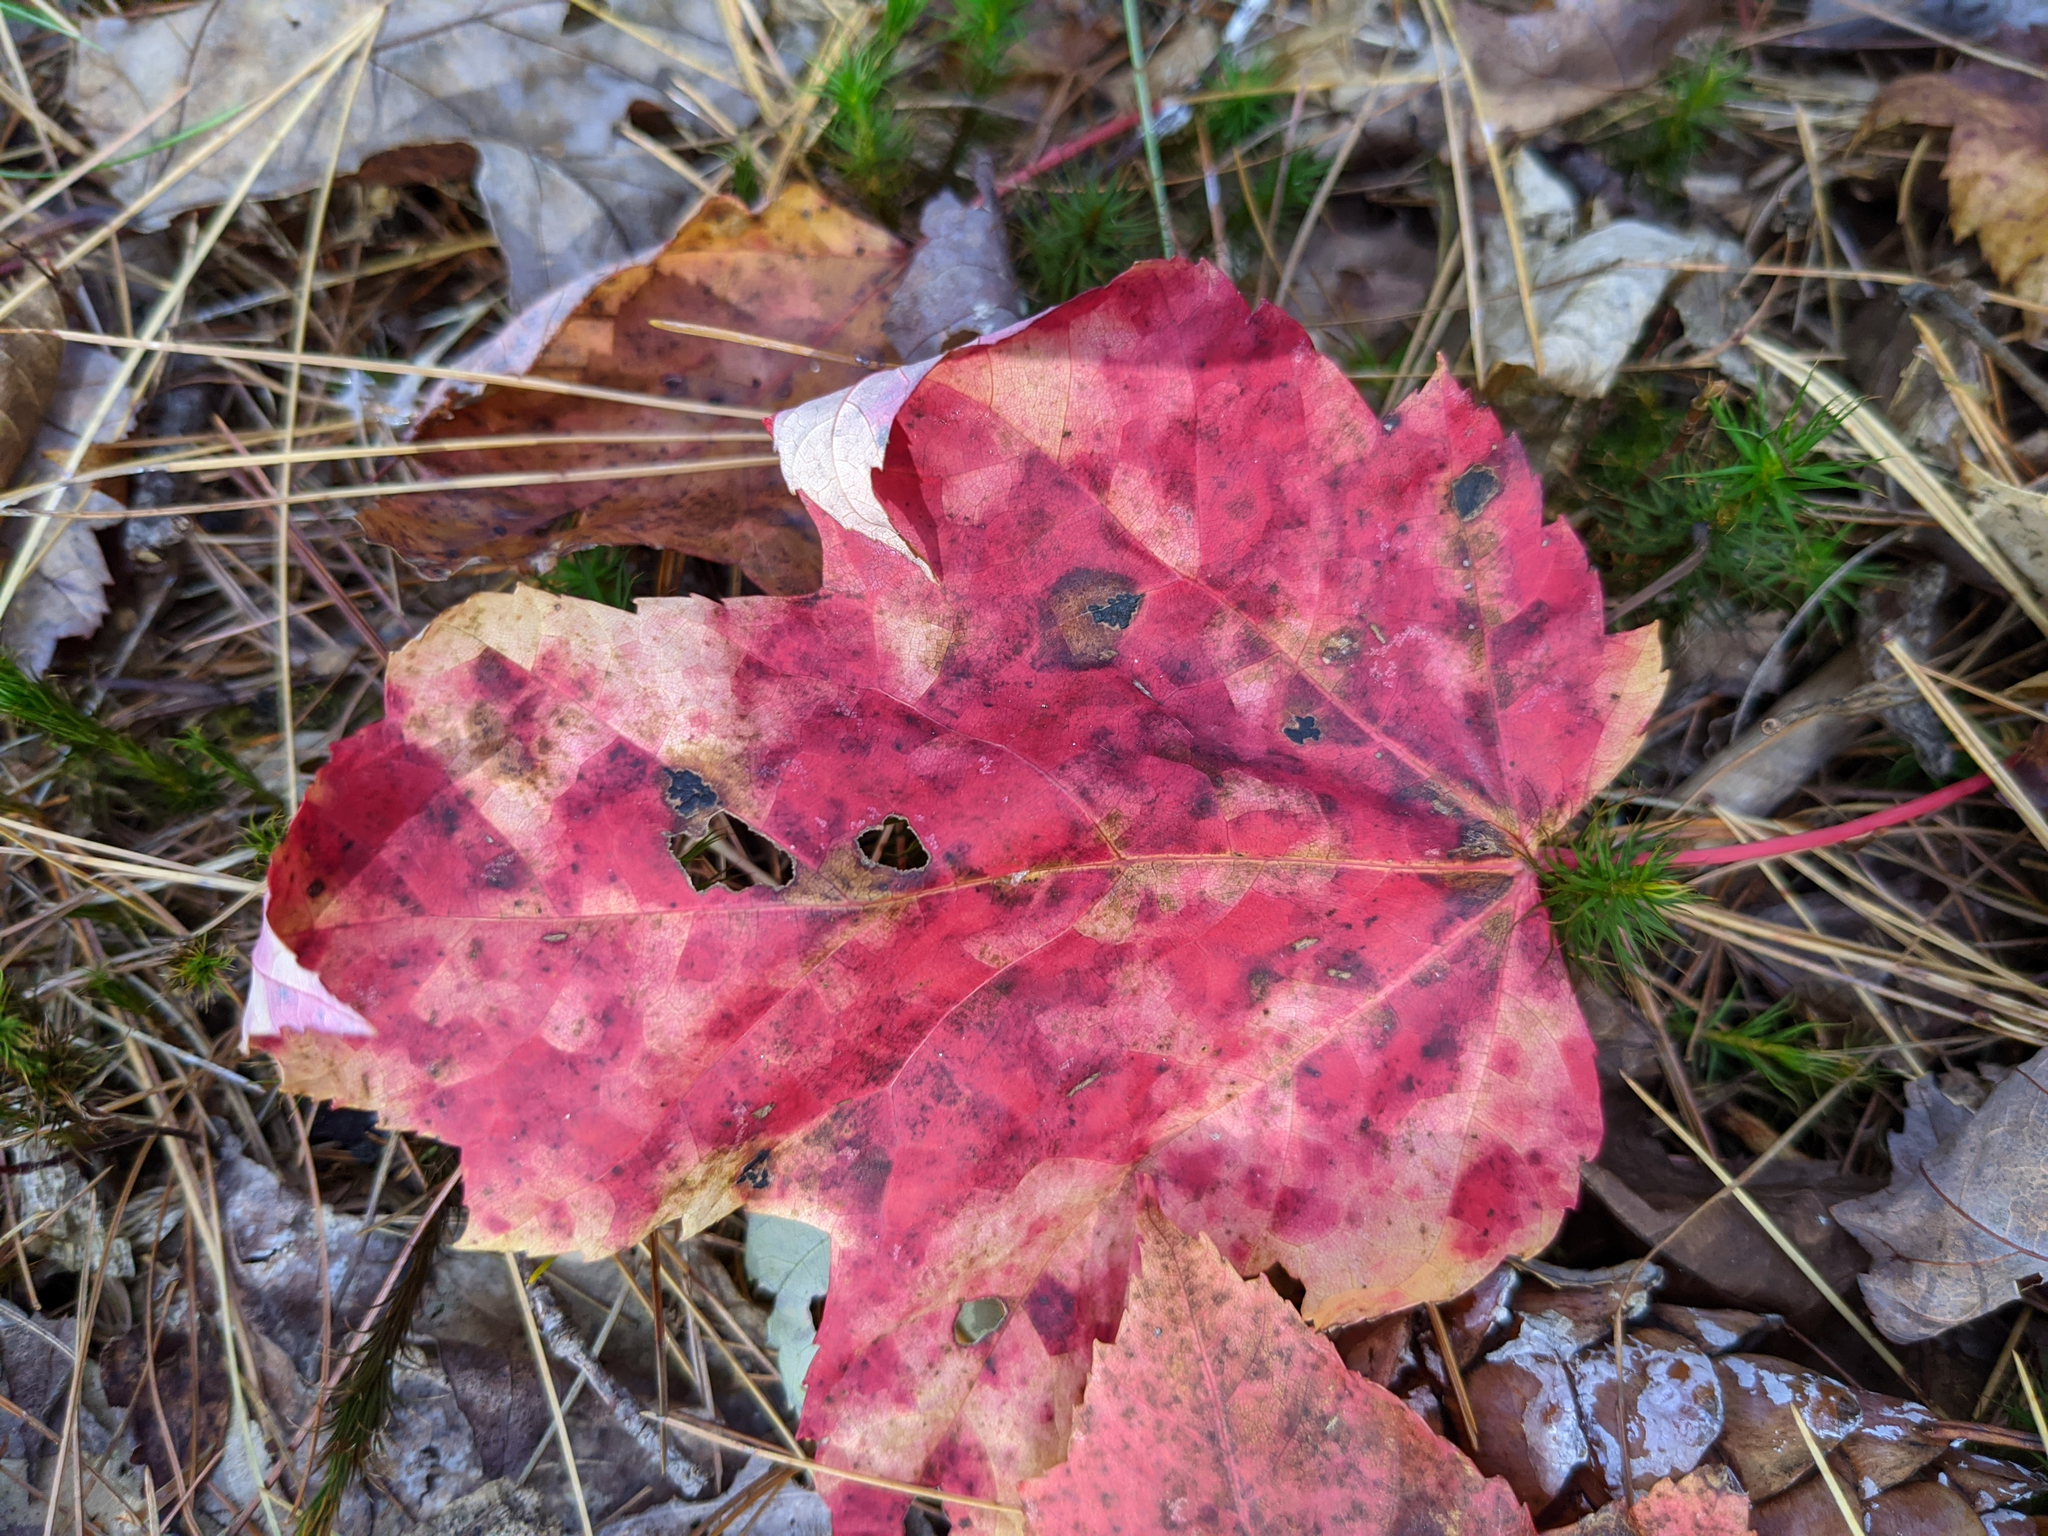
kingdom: Plantae
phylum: Tracheophyta
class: Magnoliopsida
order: Sapindales
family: Sapindaceae
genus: Acer
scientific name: Acer rubrum
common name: Red maple
